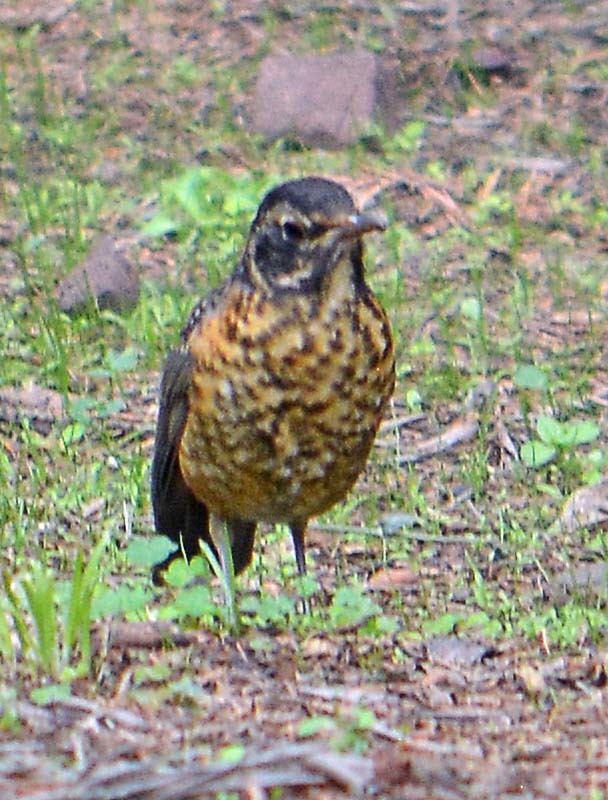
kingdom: Animalia
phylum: Chordata
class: Aves
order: Passeriformes
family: Turdidae
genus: Turdus
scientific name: Turdus migratorius
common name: American robin
